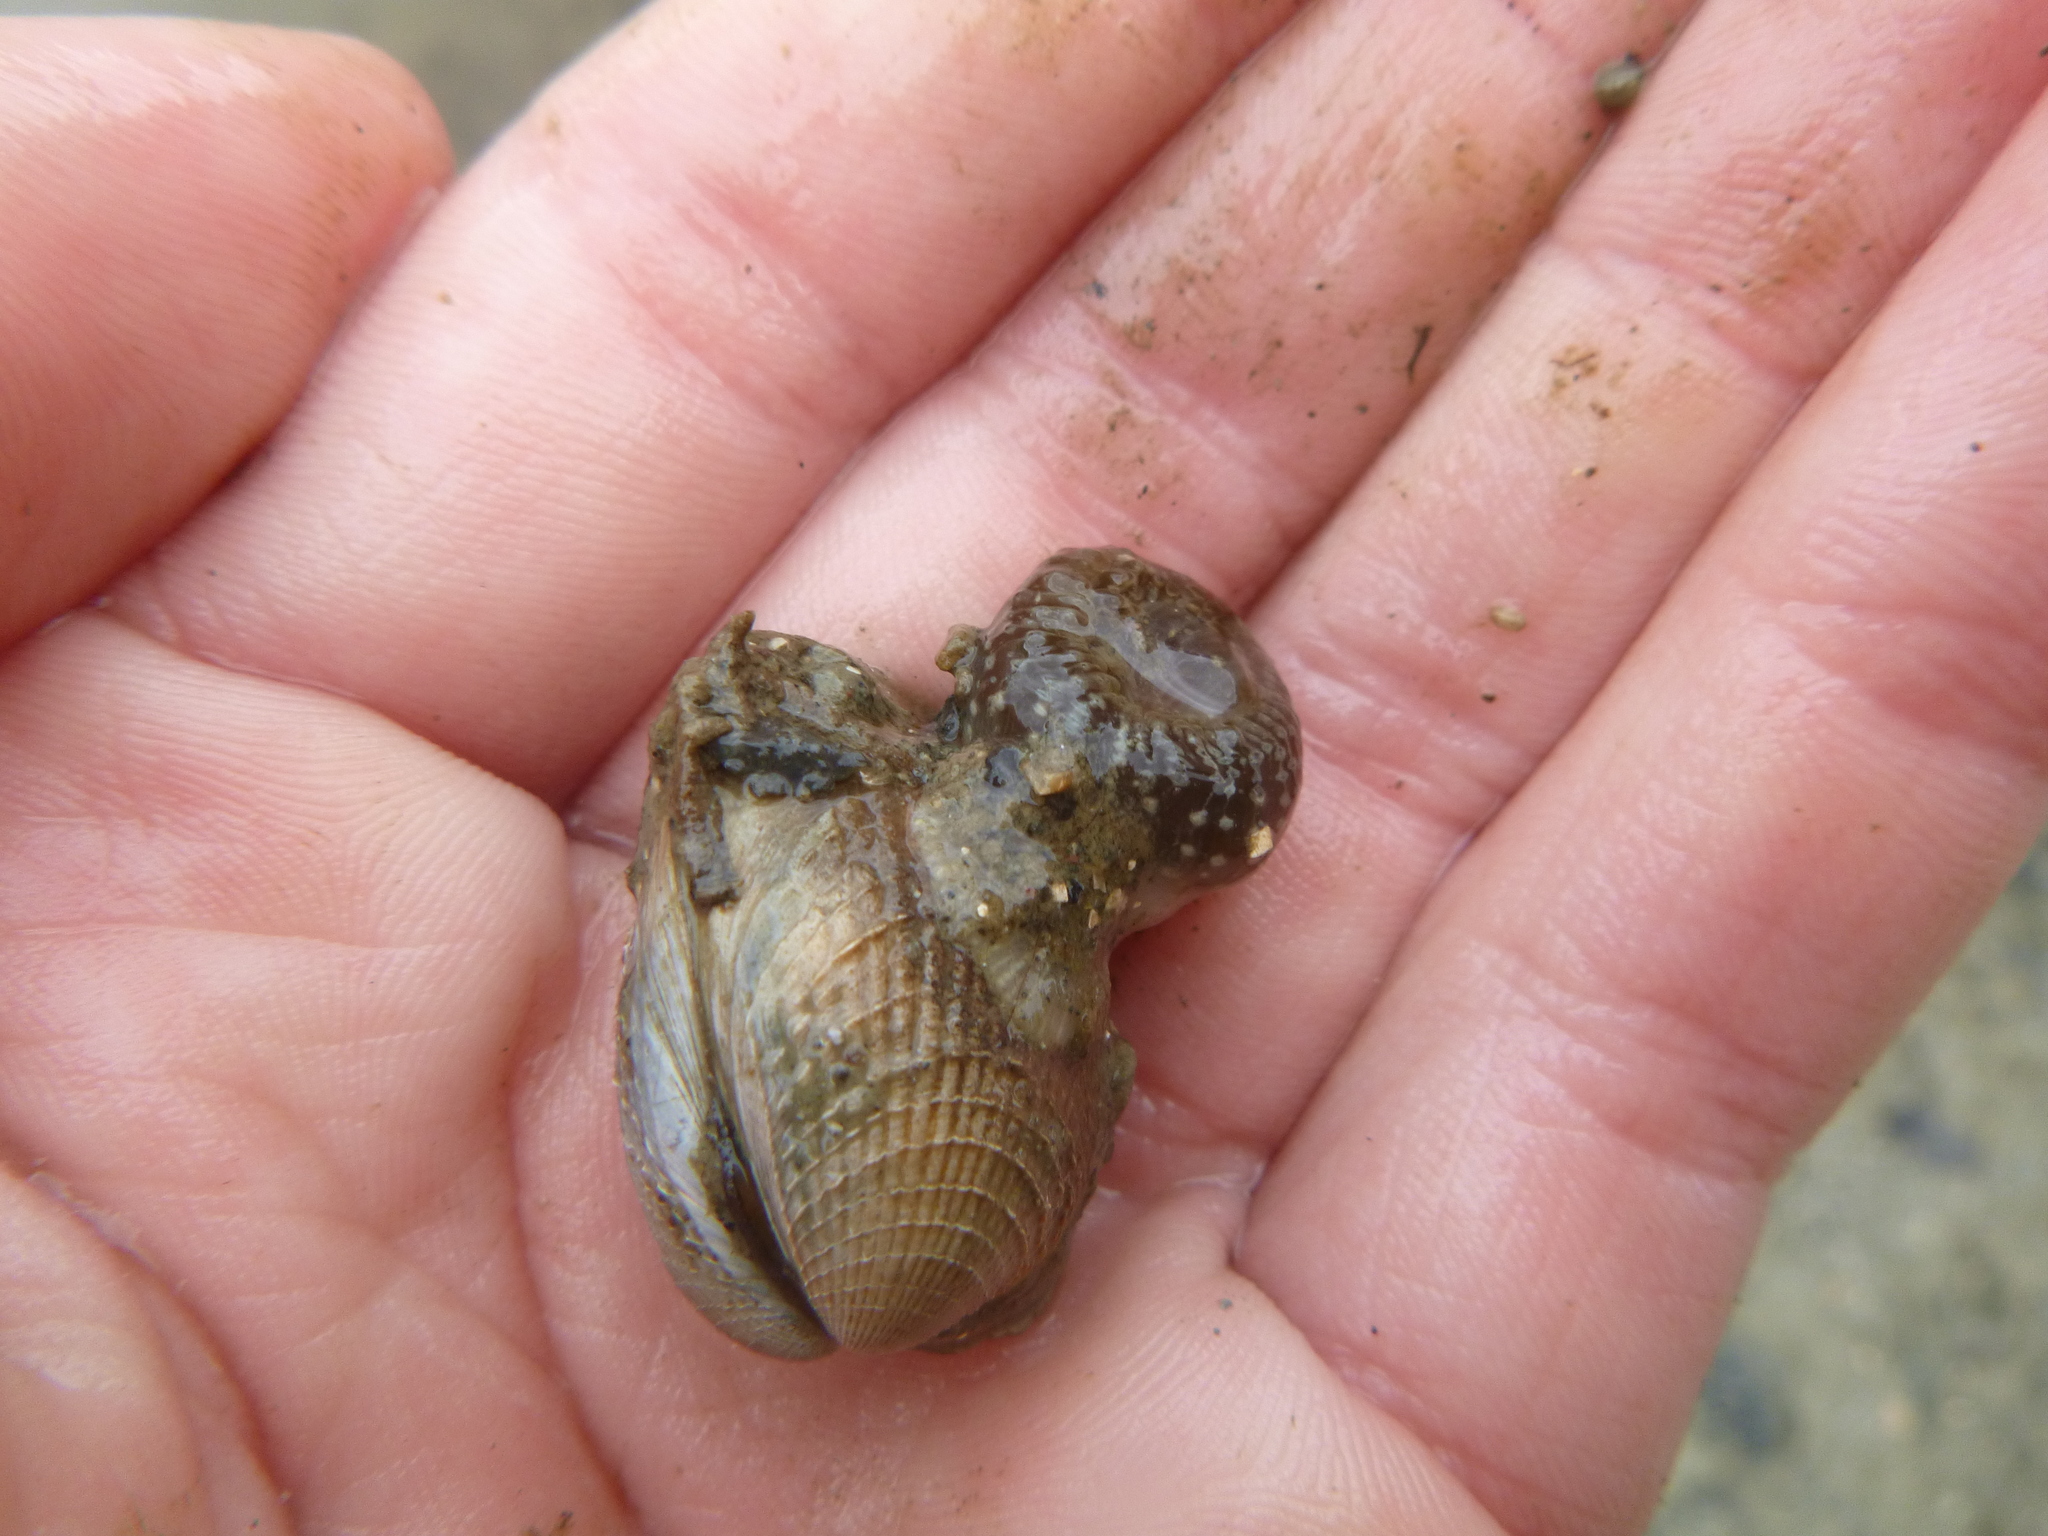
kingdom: Animalia
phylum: Mollusca
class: Bivalvia
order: Venerida
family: Veneridae
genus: Austrovenus
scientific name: Austrovenus stutchburyi
